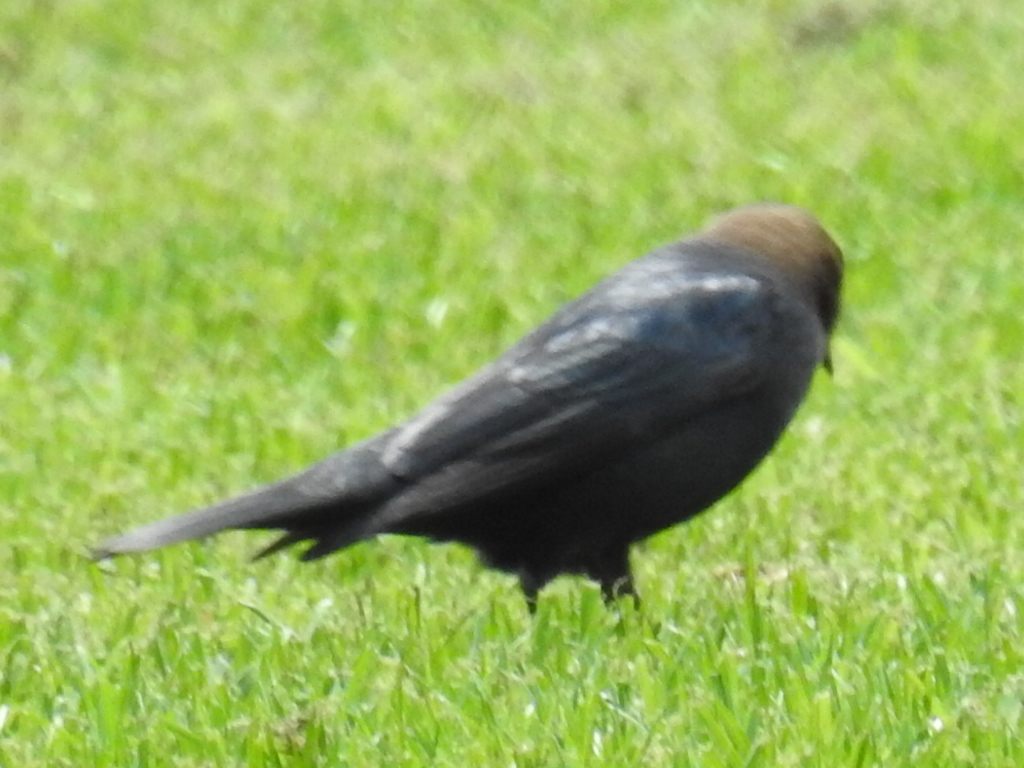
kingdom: Animalia
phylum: Chordata
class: Aves
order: Passeriformes
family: Icteridae
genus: Molothrus
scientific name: Molothrus ater
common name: Brown-headed cowbird
